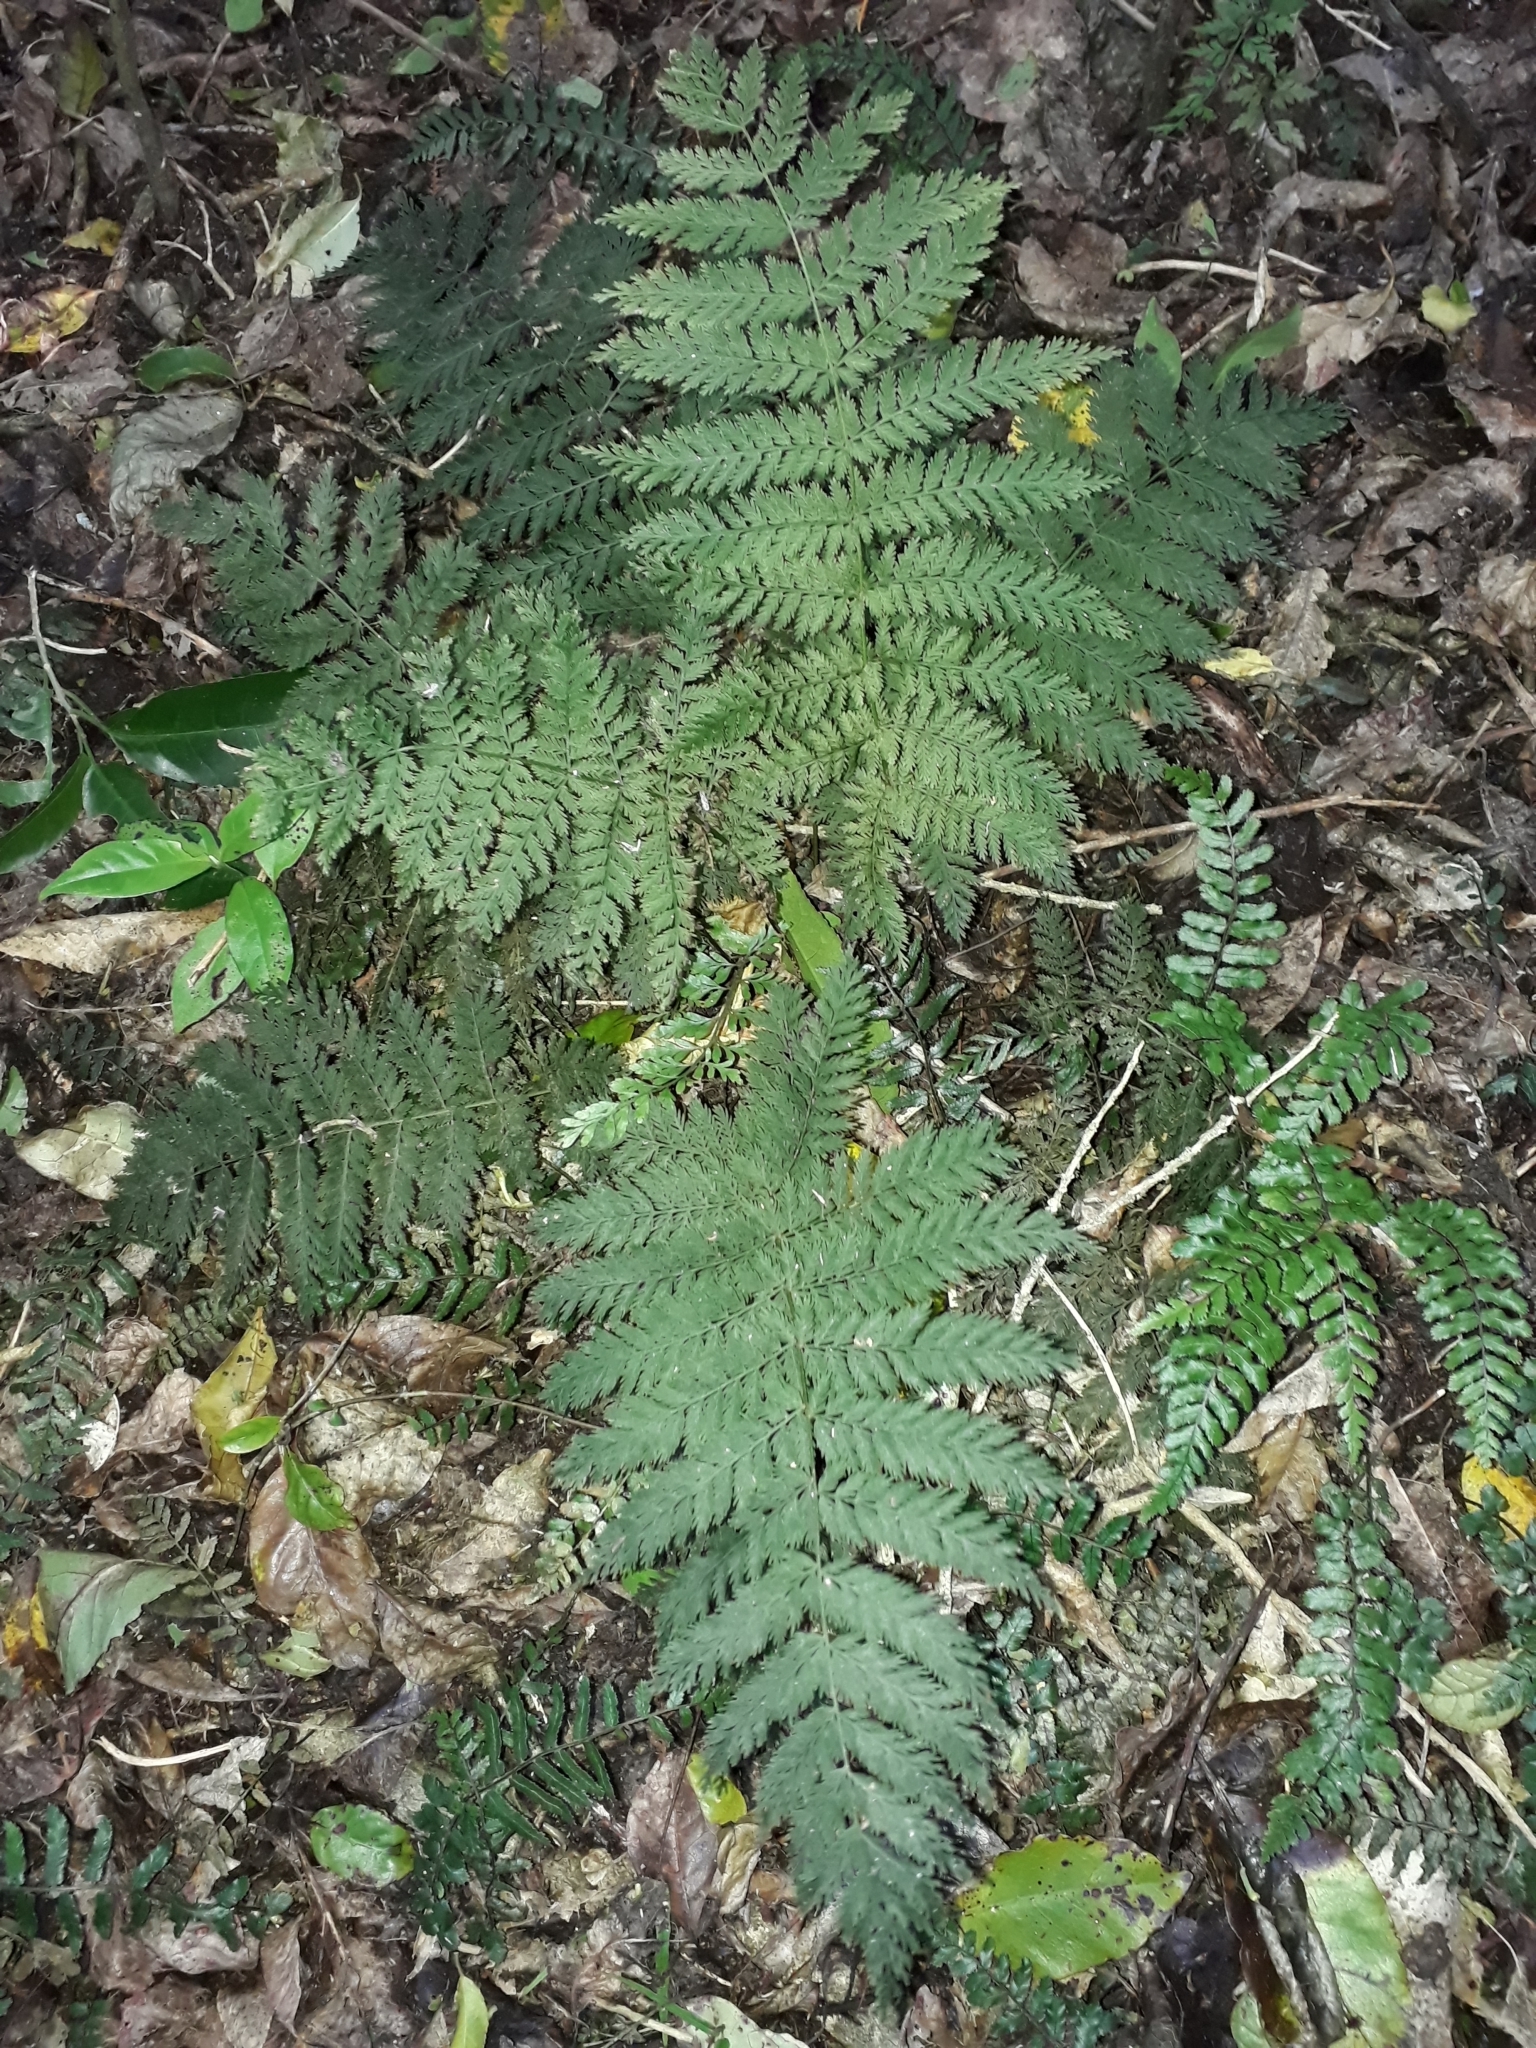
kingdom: Plantae
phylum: Tracheophyta
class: Polypodiopsida
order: Osmundales
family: Osmundaceae
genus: Leptopteris
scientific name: Leptopteris hymenophylloides
